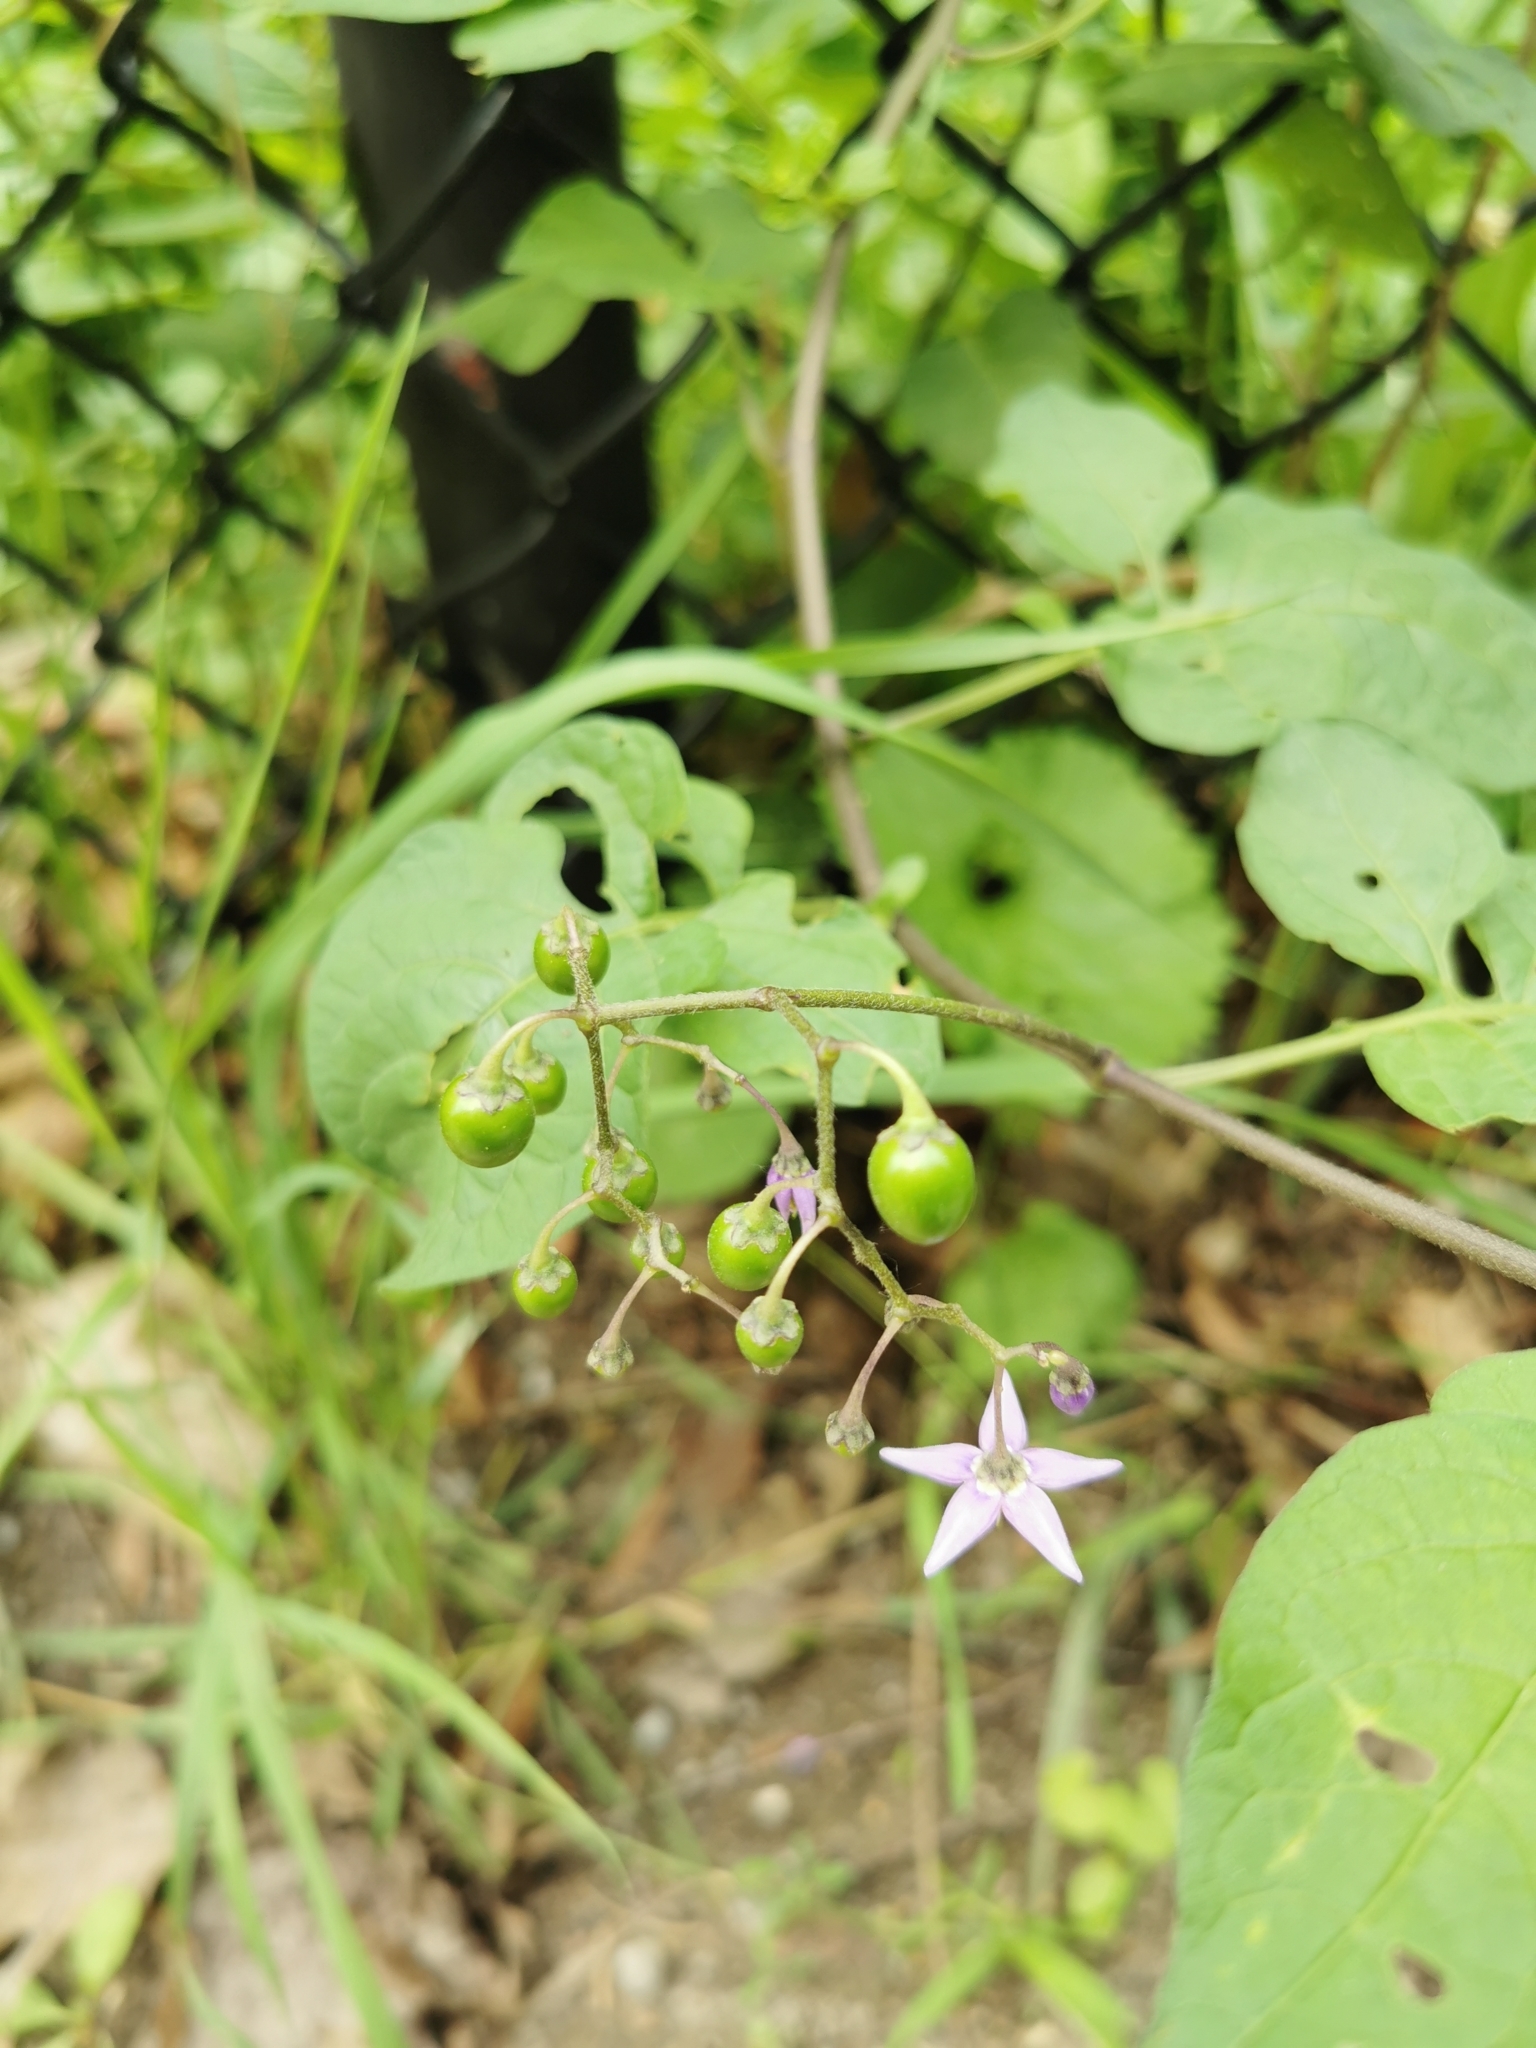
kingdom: Plantae
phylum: Tracheophyta
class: Magnoliopsida
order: Solanales
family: Solanaceae
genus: Solanum
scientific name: Solanum dulcamara
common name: Climbing nightshade
